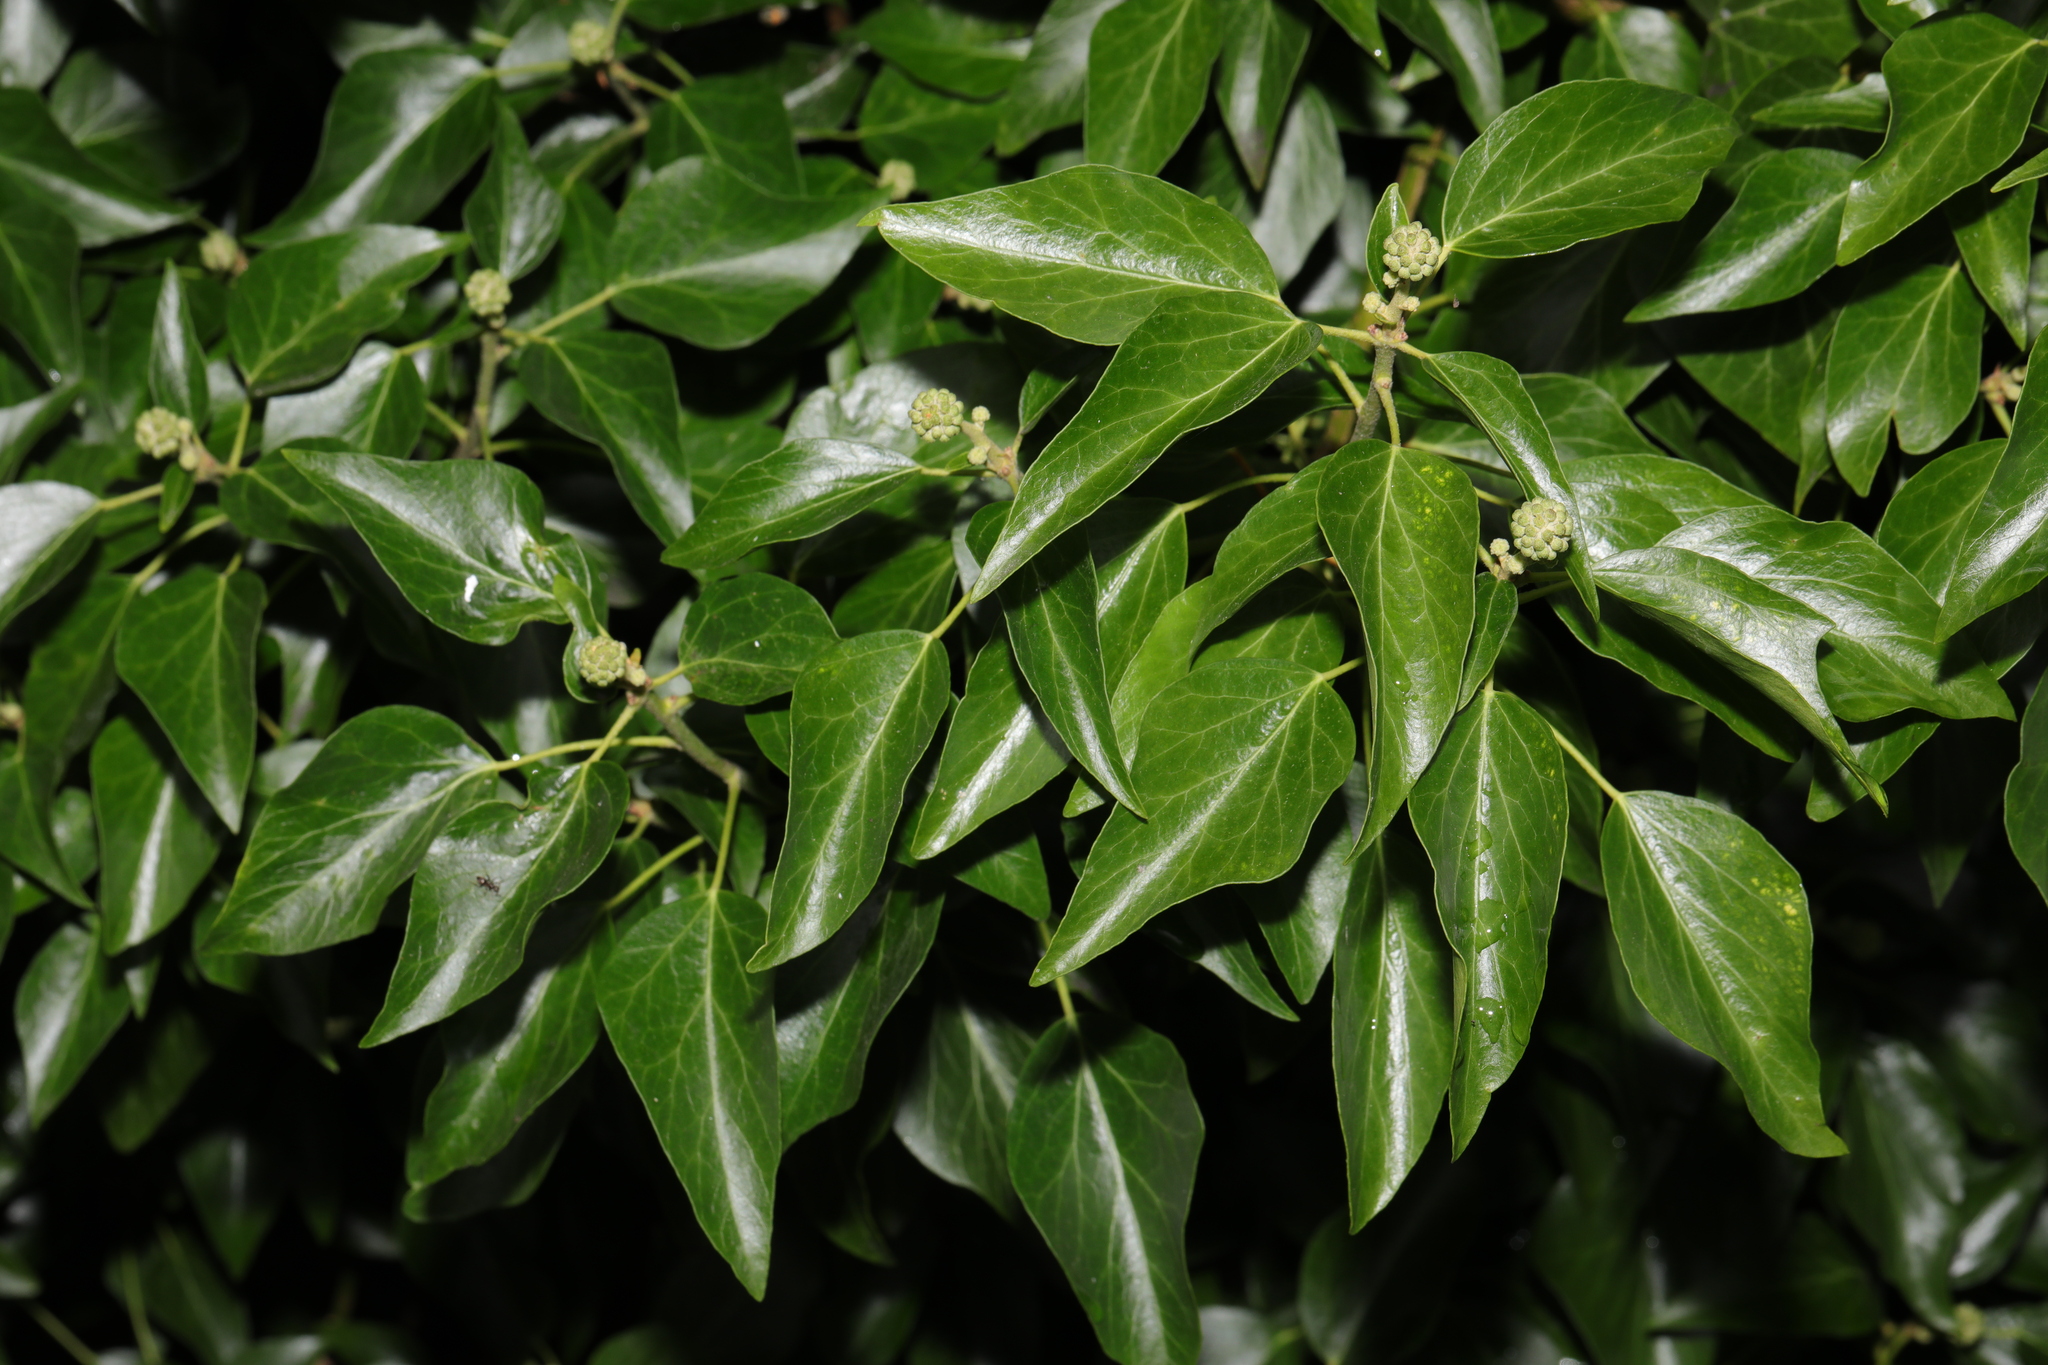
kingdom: Plantae
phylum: Tracheophyta
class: Magnoliopsida
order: Apiales
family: Araliaceae
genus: Hedera
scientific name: Hedera helix
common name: Ivy
